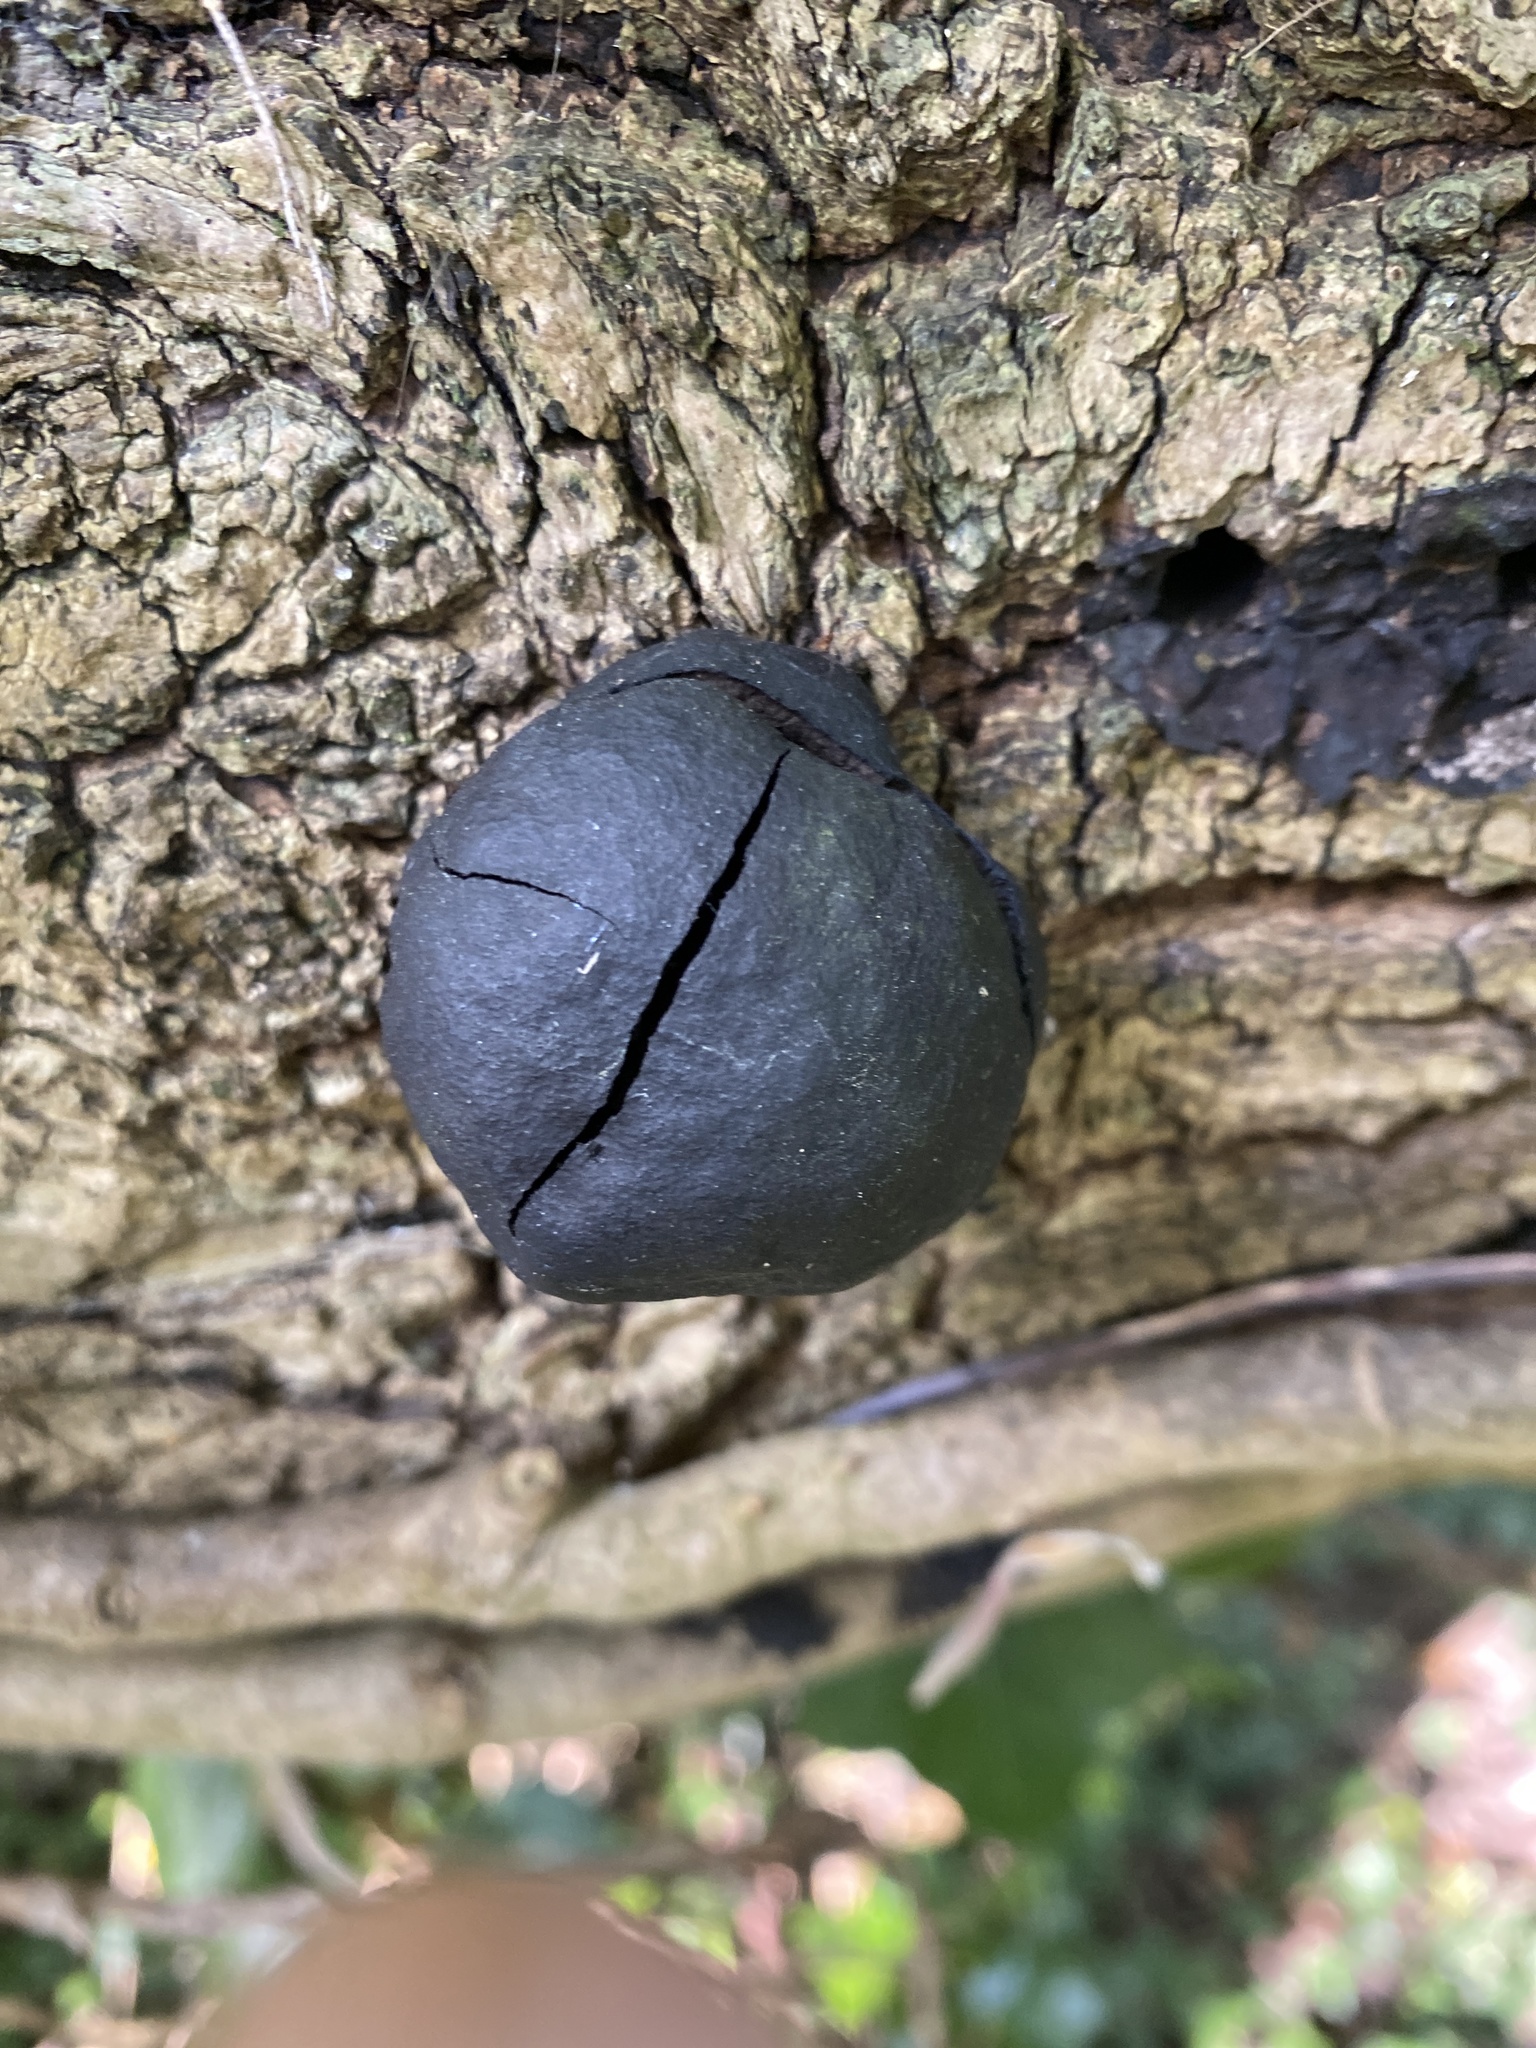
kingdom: Fungi
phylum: Ascomycota
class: Sordariomycetes
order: Xylariales
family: Hypoxylaceae
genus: Daldinia
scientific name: Daldinia concentrica
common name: Cramp balls
